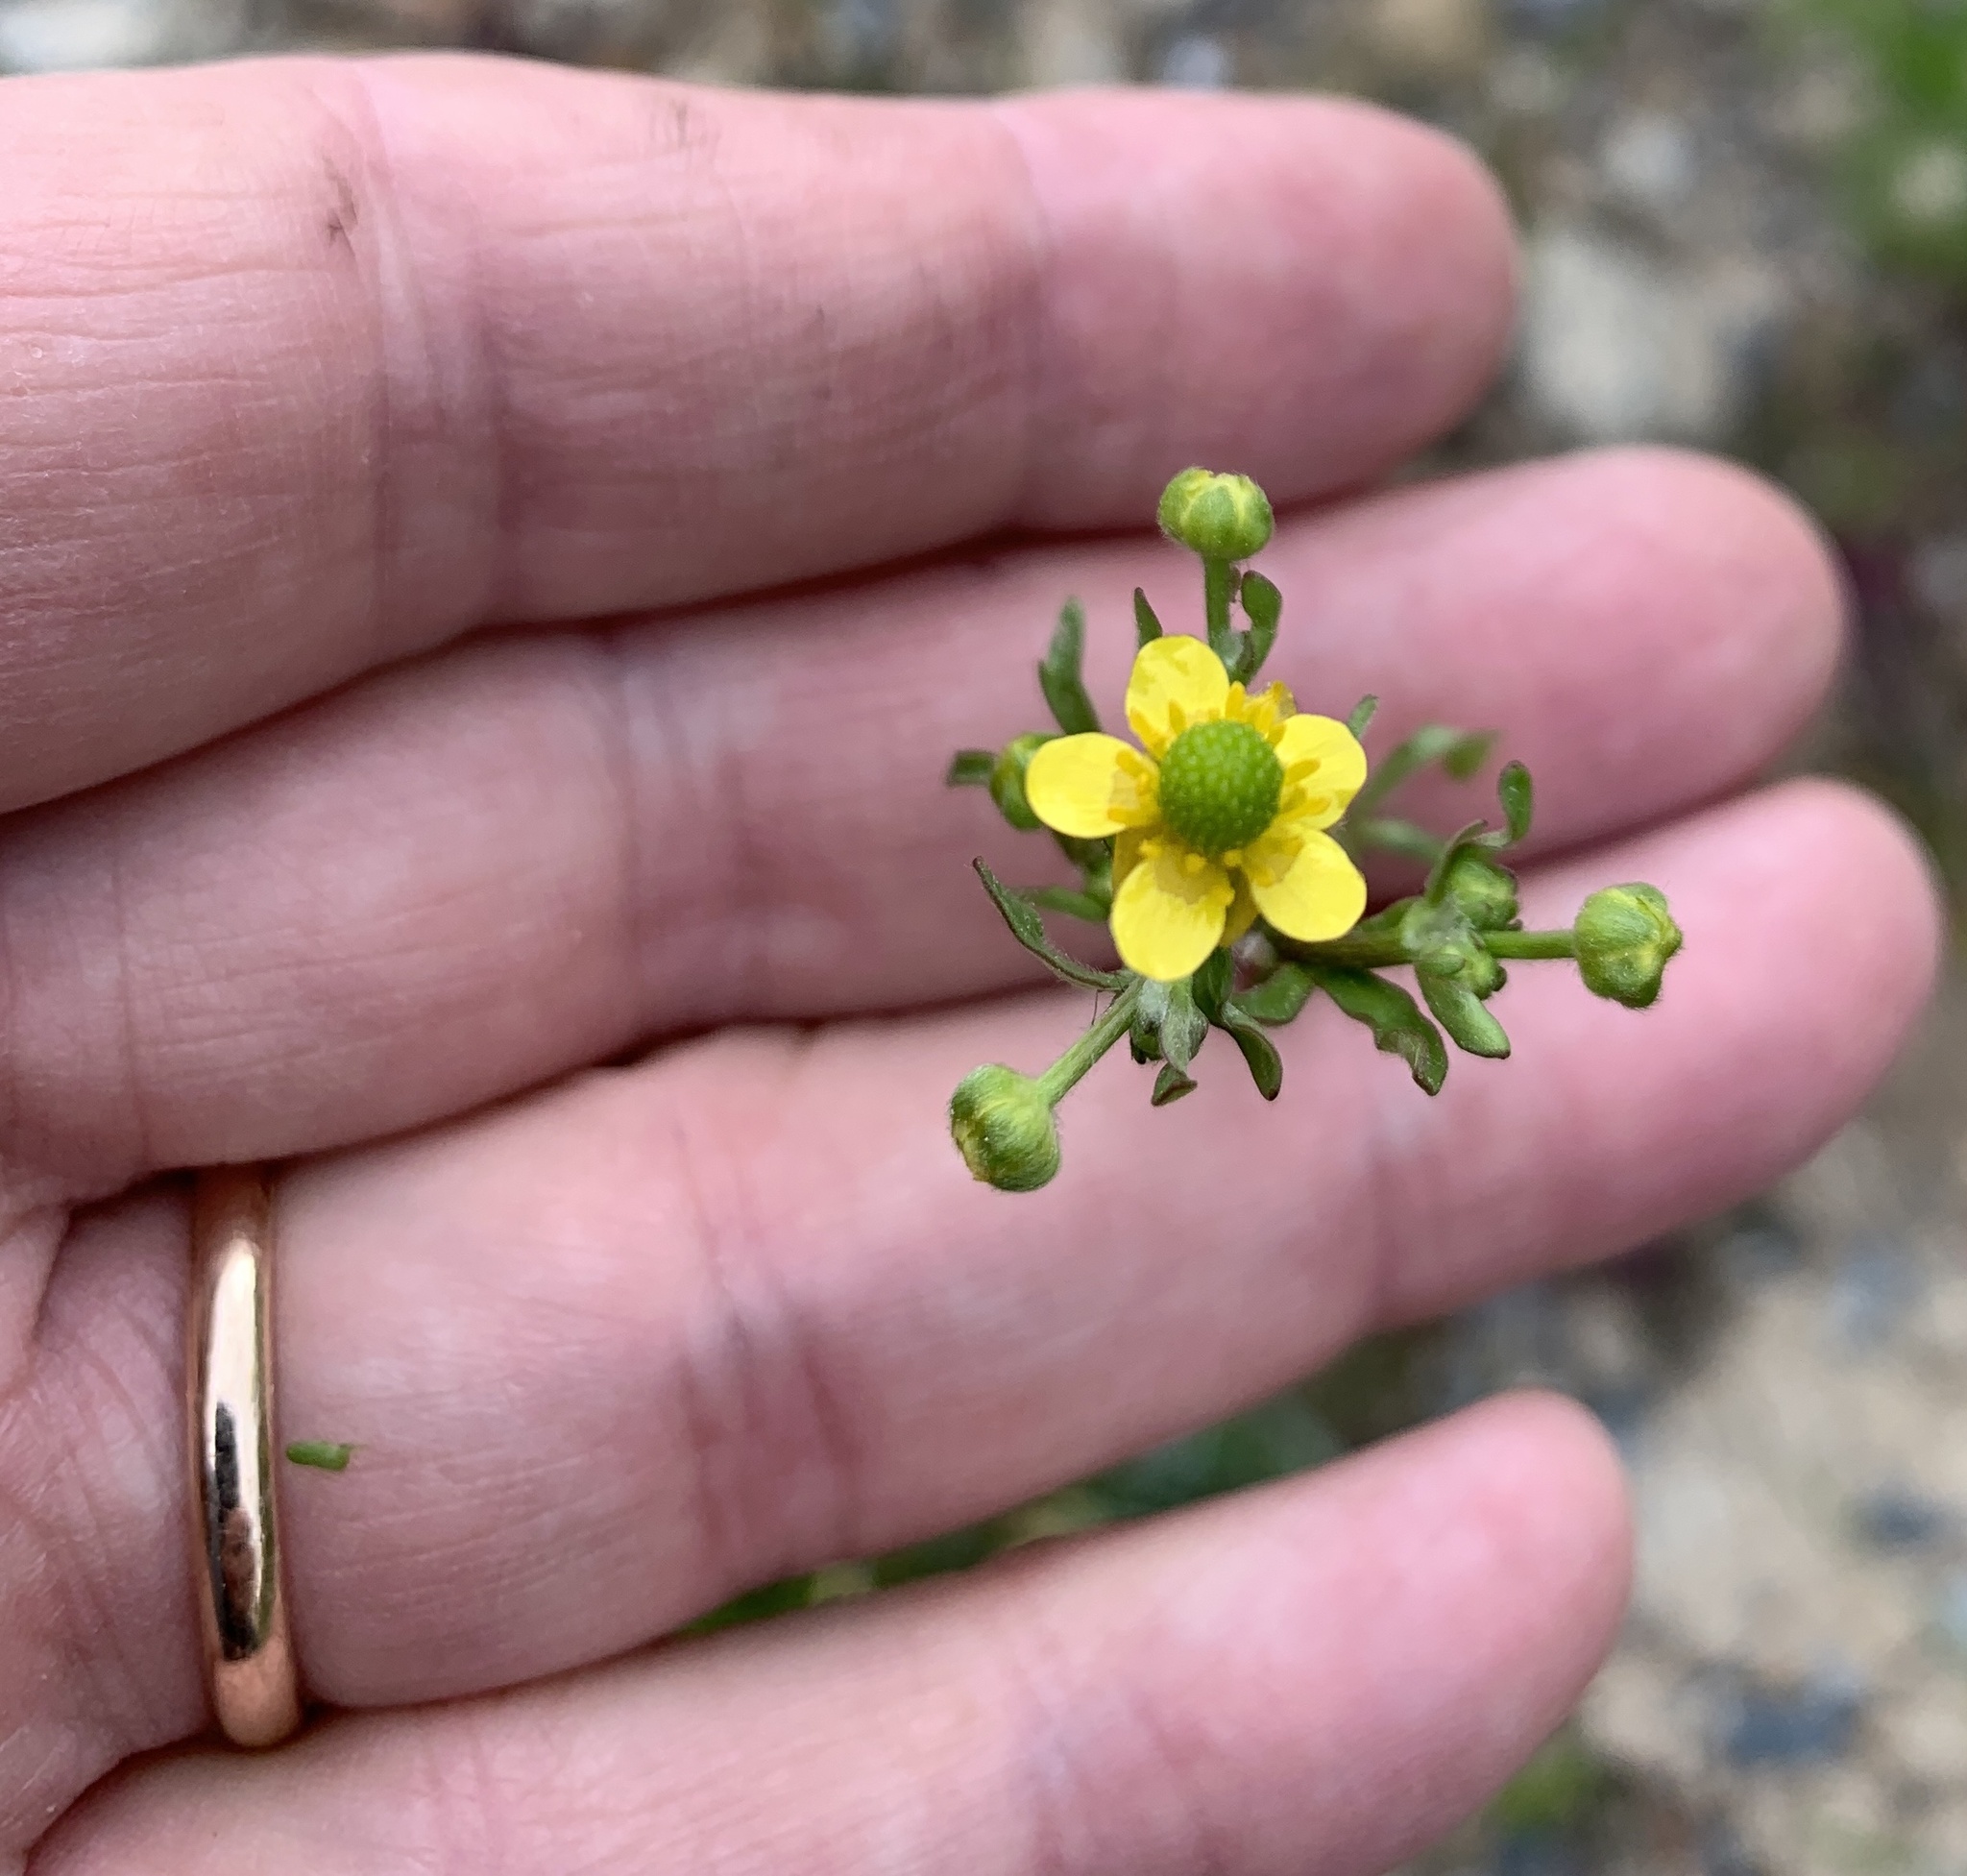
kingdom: Plantae
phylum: Tracheophyta
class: Magnoliopsida
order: Ranunculales
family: Ranunculaceae
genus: Ranunculus
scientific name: Ranunculus sceleratus
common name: Celery-leaved buttercup
